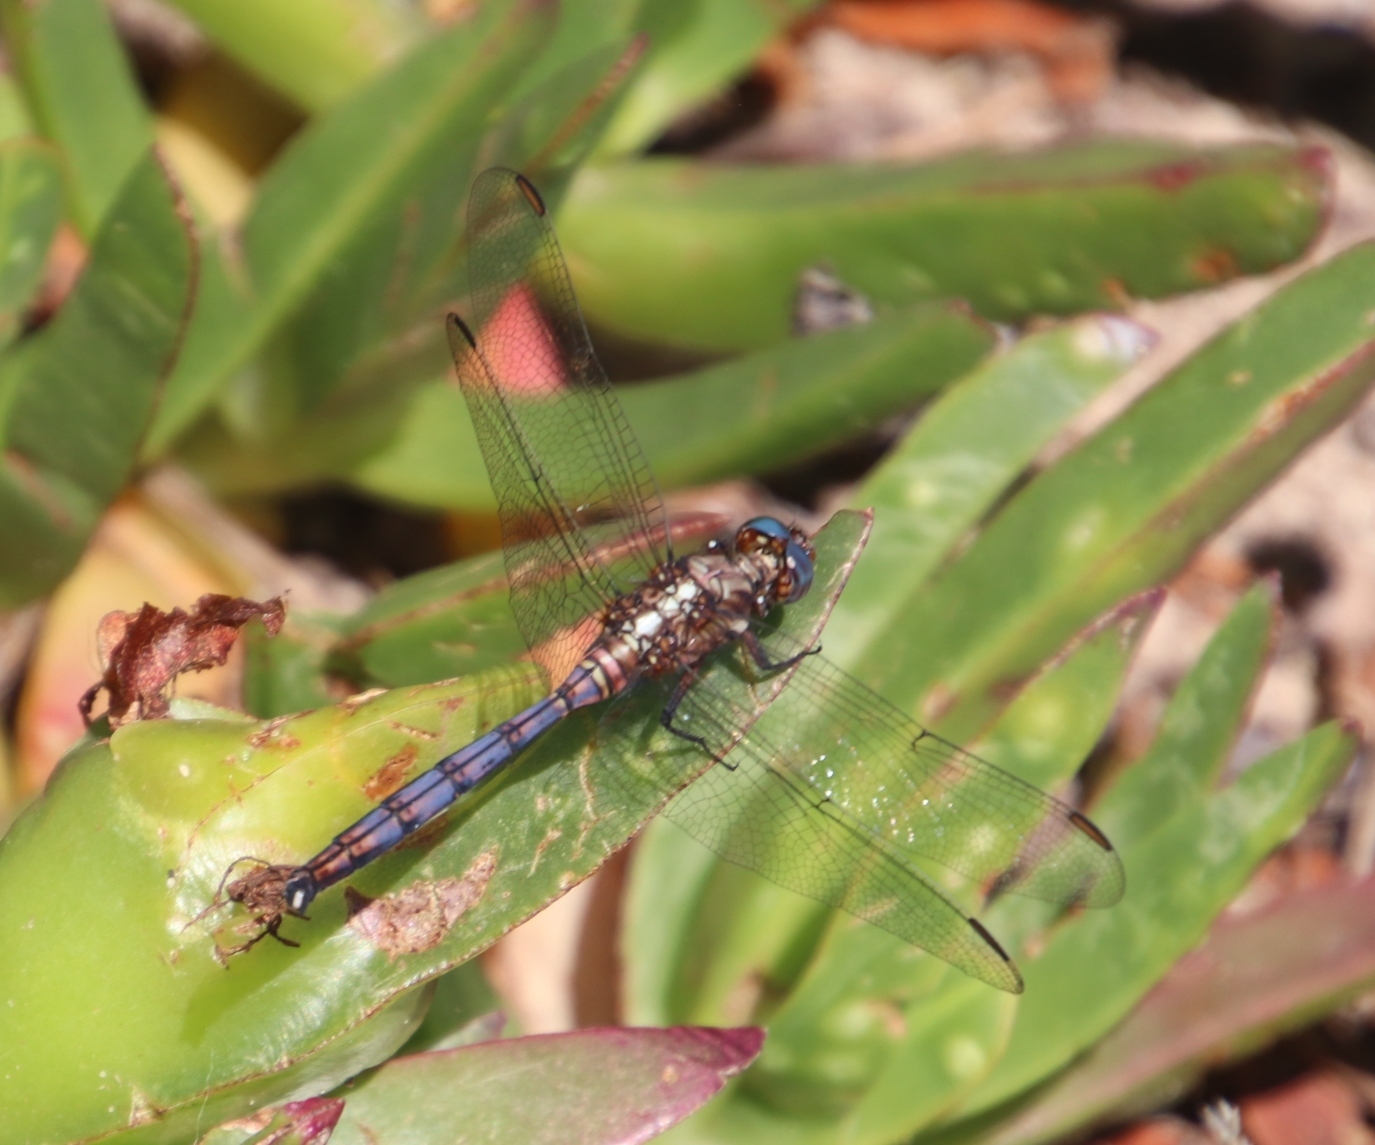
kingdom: Animalia
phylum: Arthropoda
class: Insecta
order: Odonata
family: Libellulidae
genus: Orthetrum
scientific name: Orthetrum julia
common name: Julia skimmer
